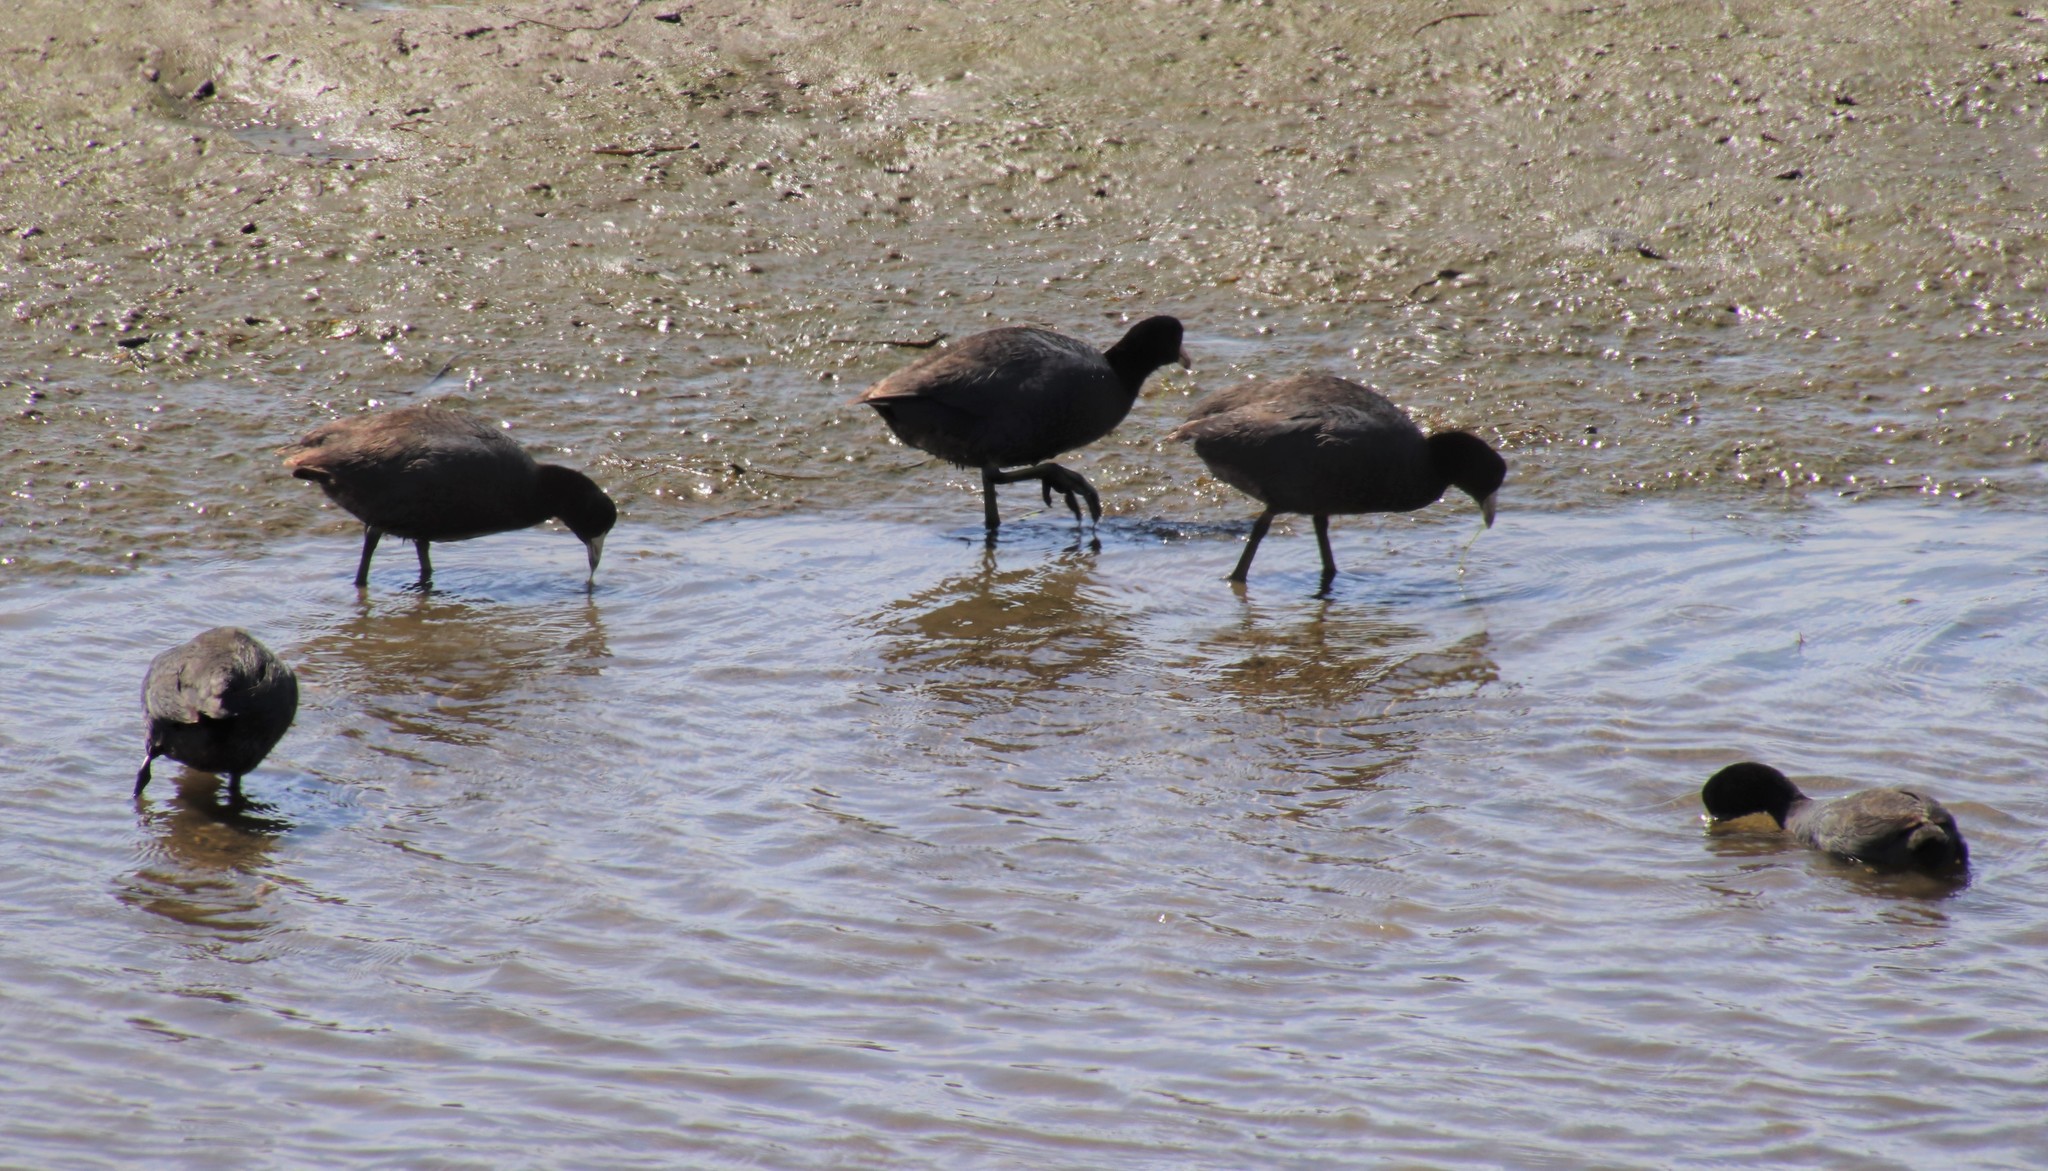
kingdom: Animalia
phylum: Chordata
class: Aves
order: Gruiformes
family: Rallidae
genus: Fulica
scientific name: Fulica americana
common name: American coot
